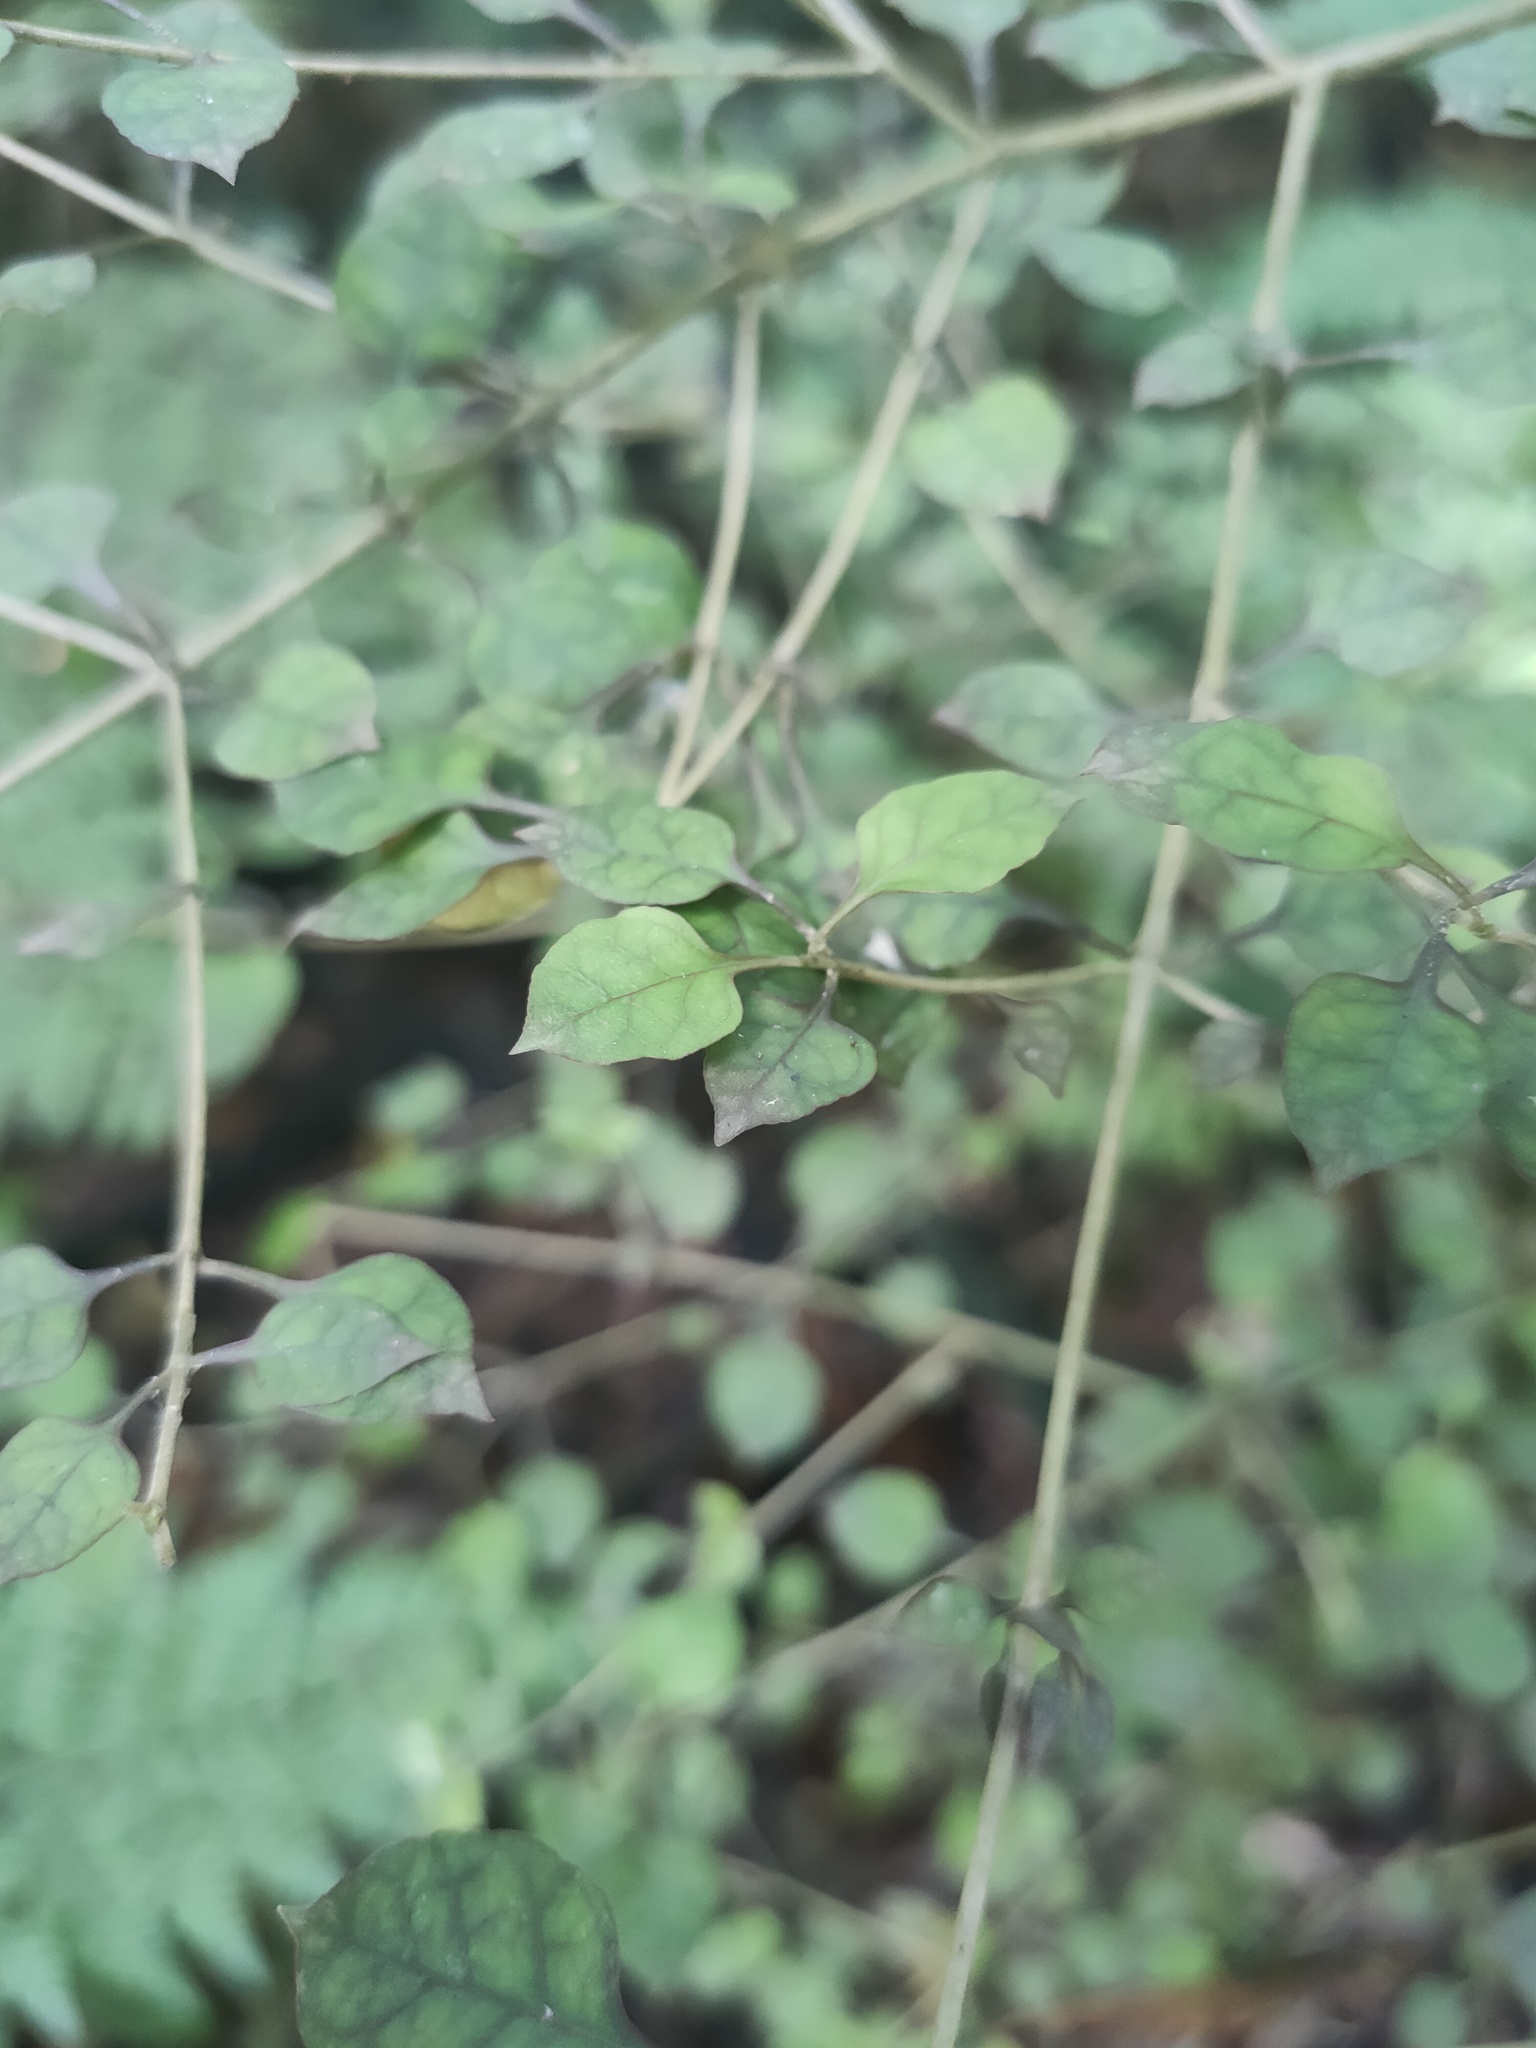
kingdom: Plantae
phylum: Tracheophyta
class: Magnoliopsida
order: Gentianales
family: Rubiaceae
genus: Coprosma
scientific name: Coprosma areolata
